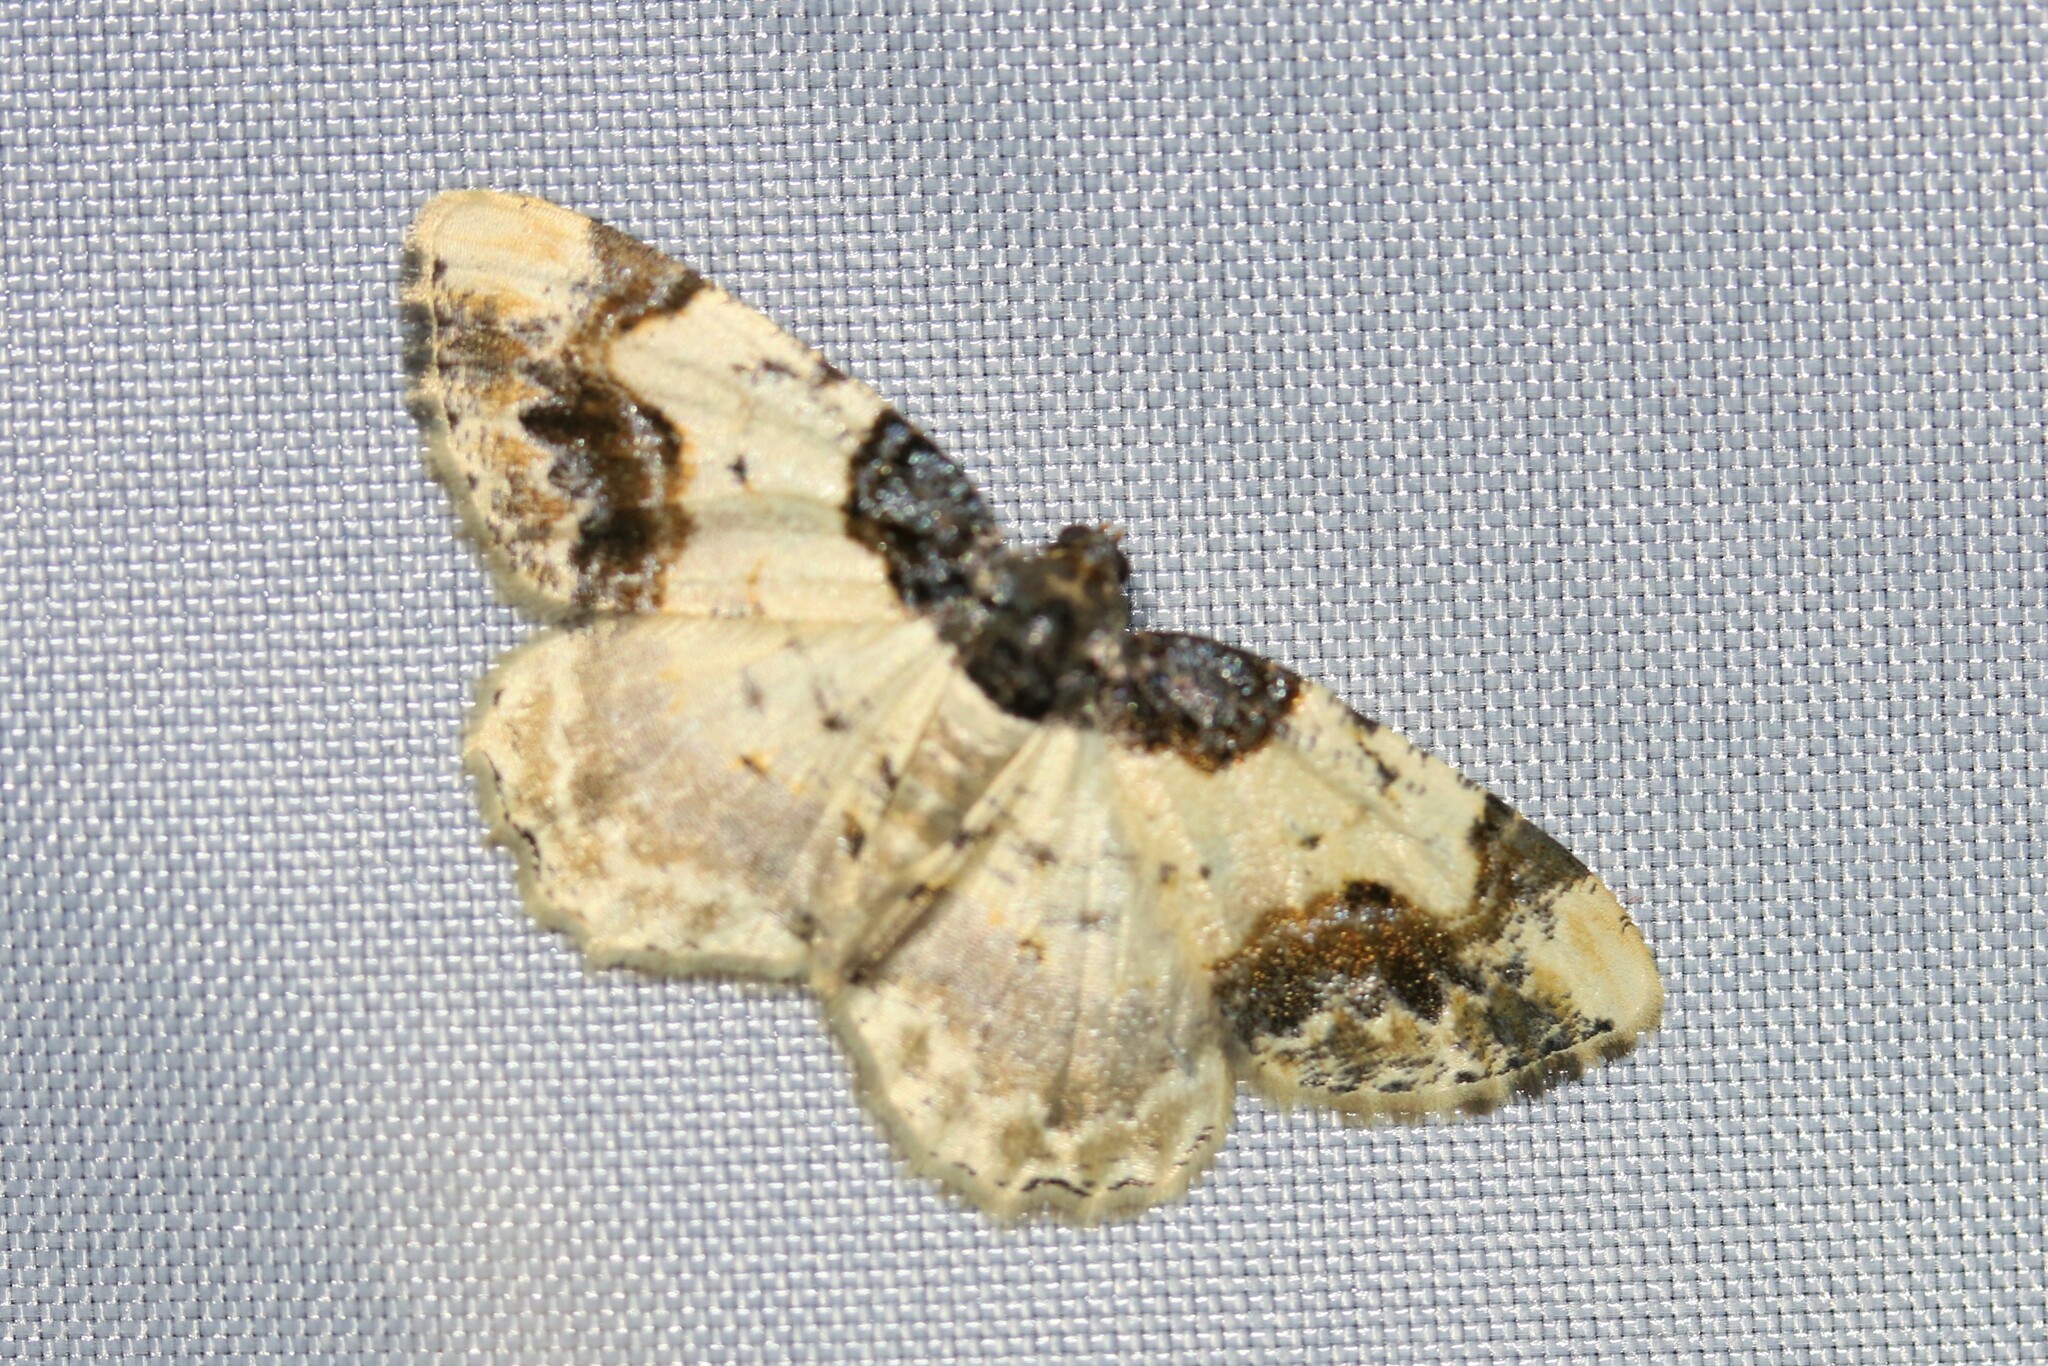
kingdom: Animalia
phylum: Arthropoda
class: Insecta
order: Lepidoptera
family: Geometridae
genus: Ligdia
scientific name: Ligdia adustata
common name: Scorched carpet
